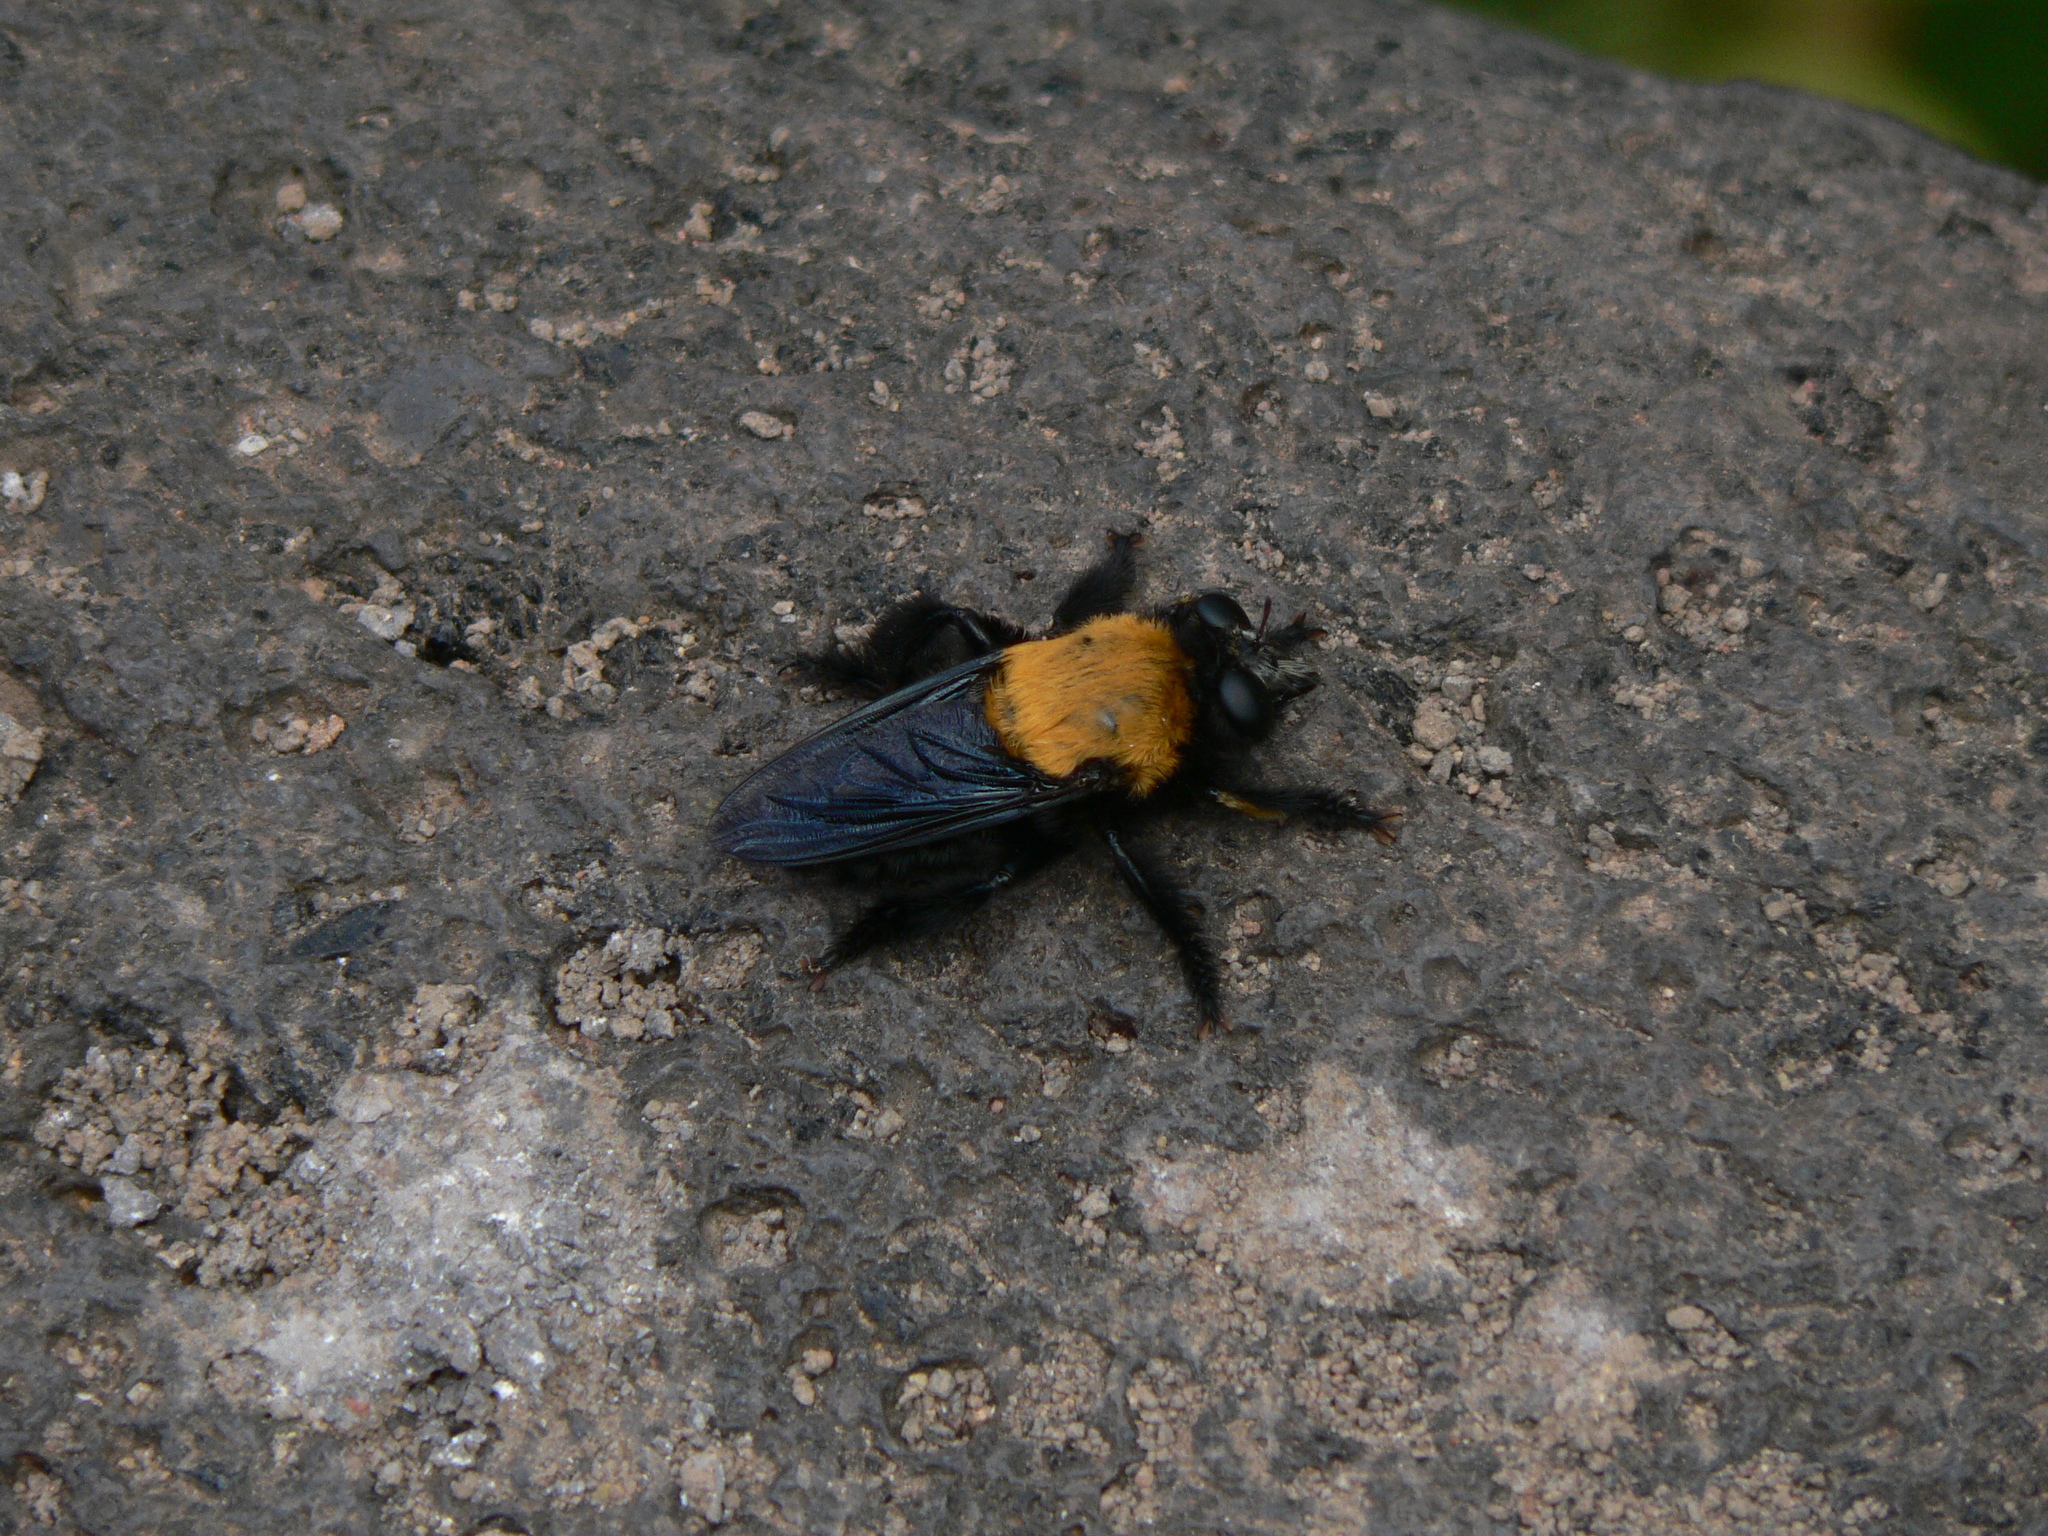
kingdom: Animalia
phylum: Arthropoda
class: Insecta
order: Diptera
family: Asilidae
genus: Hyperechia
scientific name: Hyperechia
